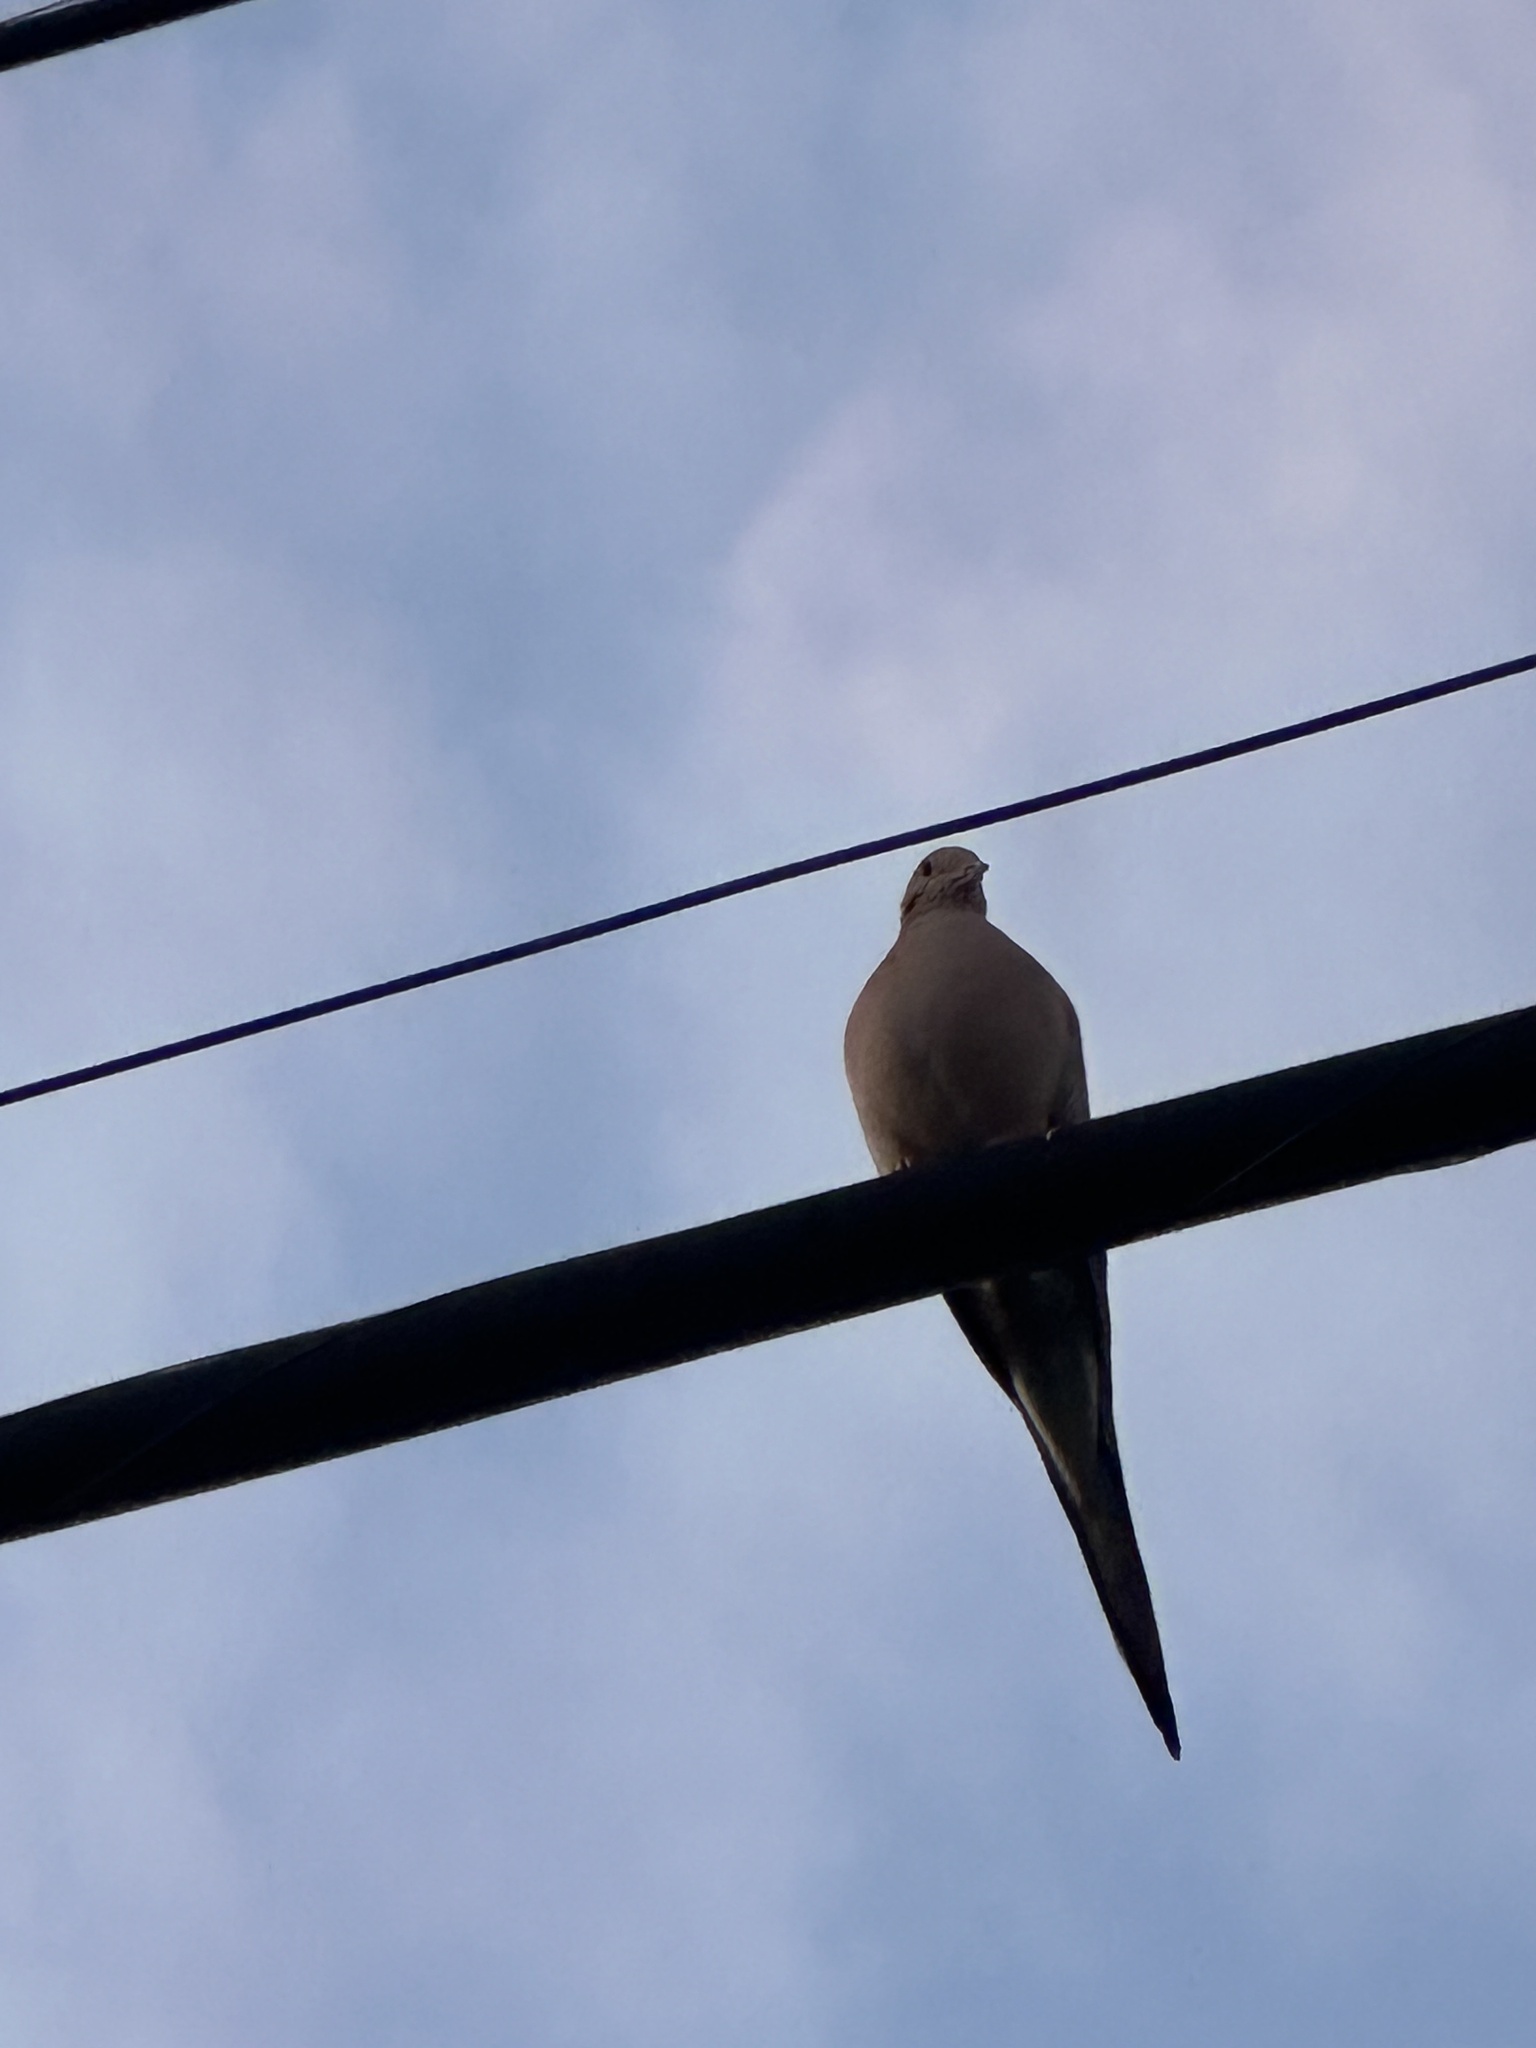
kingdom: Animalia
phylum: Chordata
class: Aves
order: Columbiformes
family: Columbidae
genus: Zenaida
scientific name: Zenaida macroura
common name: Mourning dove
